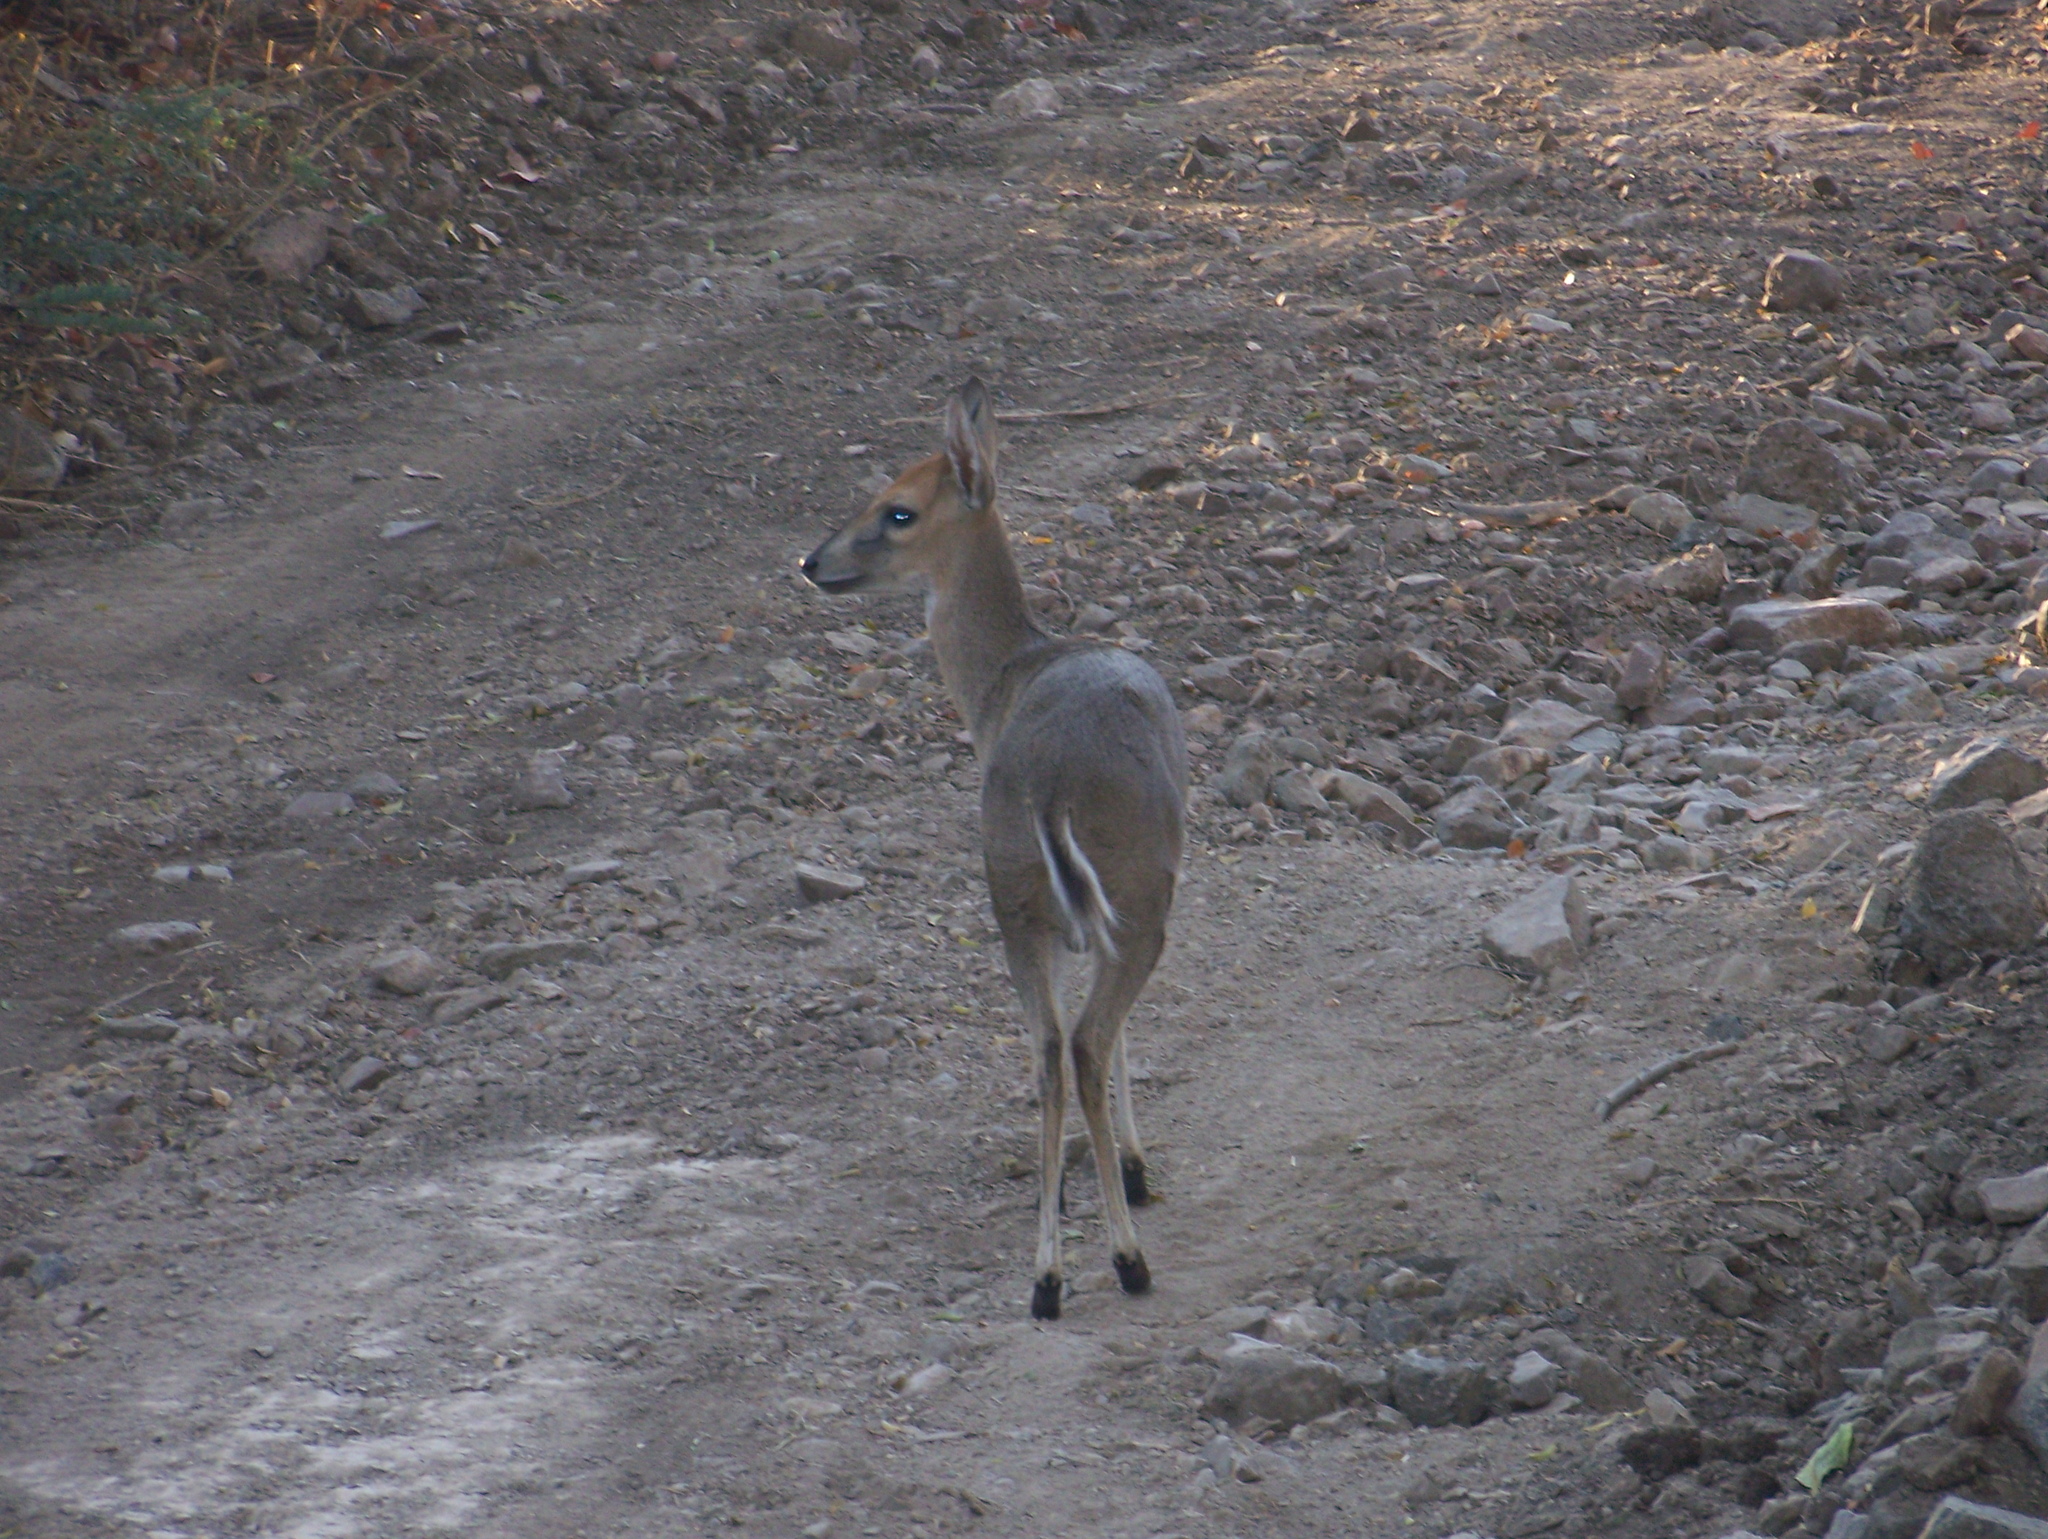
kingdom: Animalia
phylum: Chordata
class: Mammalia
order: Artiodactyla
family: Bovidae
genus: Sylvicapra
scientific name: Sylvicapra grimmia
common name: Bush duiker
